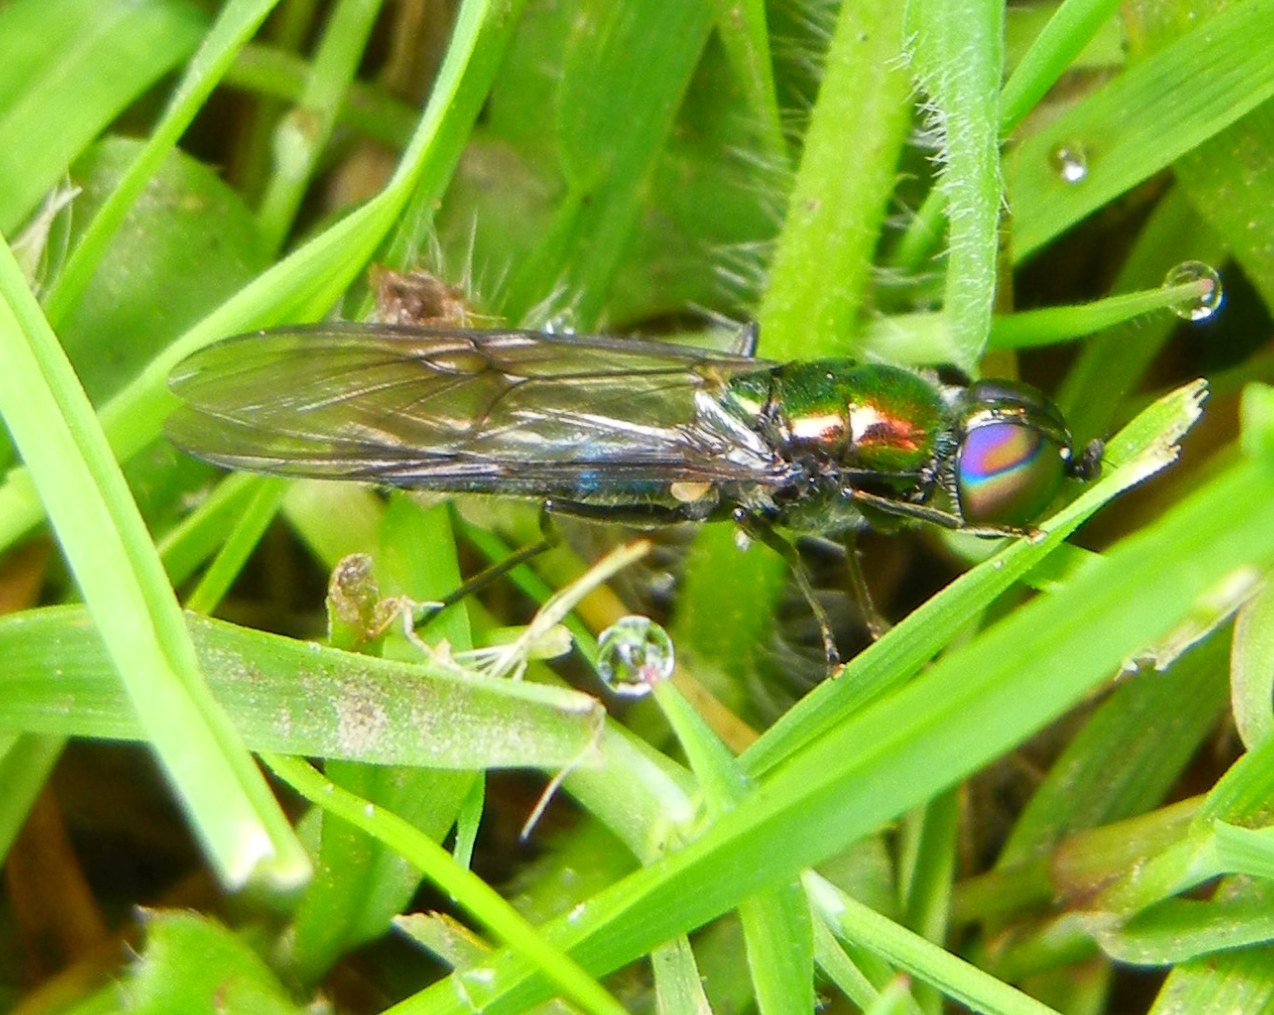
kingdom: Animalia
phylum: Arthropoda
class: Insecta
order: Diptera
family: Stratiomyidae
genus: Sargus
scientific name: Sargus iridatus
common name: Iridescent centurion
